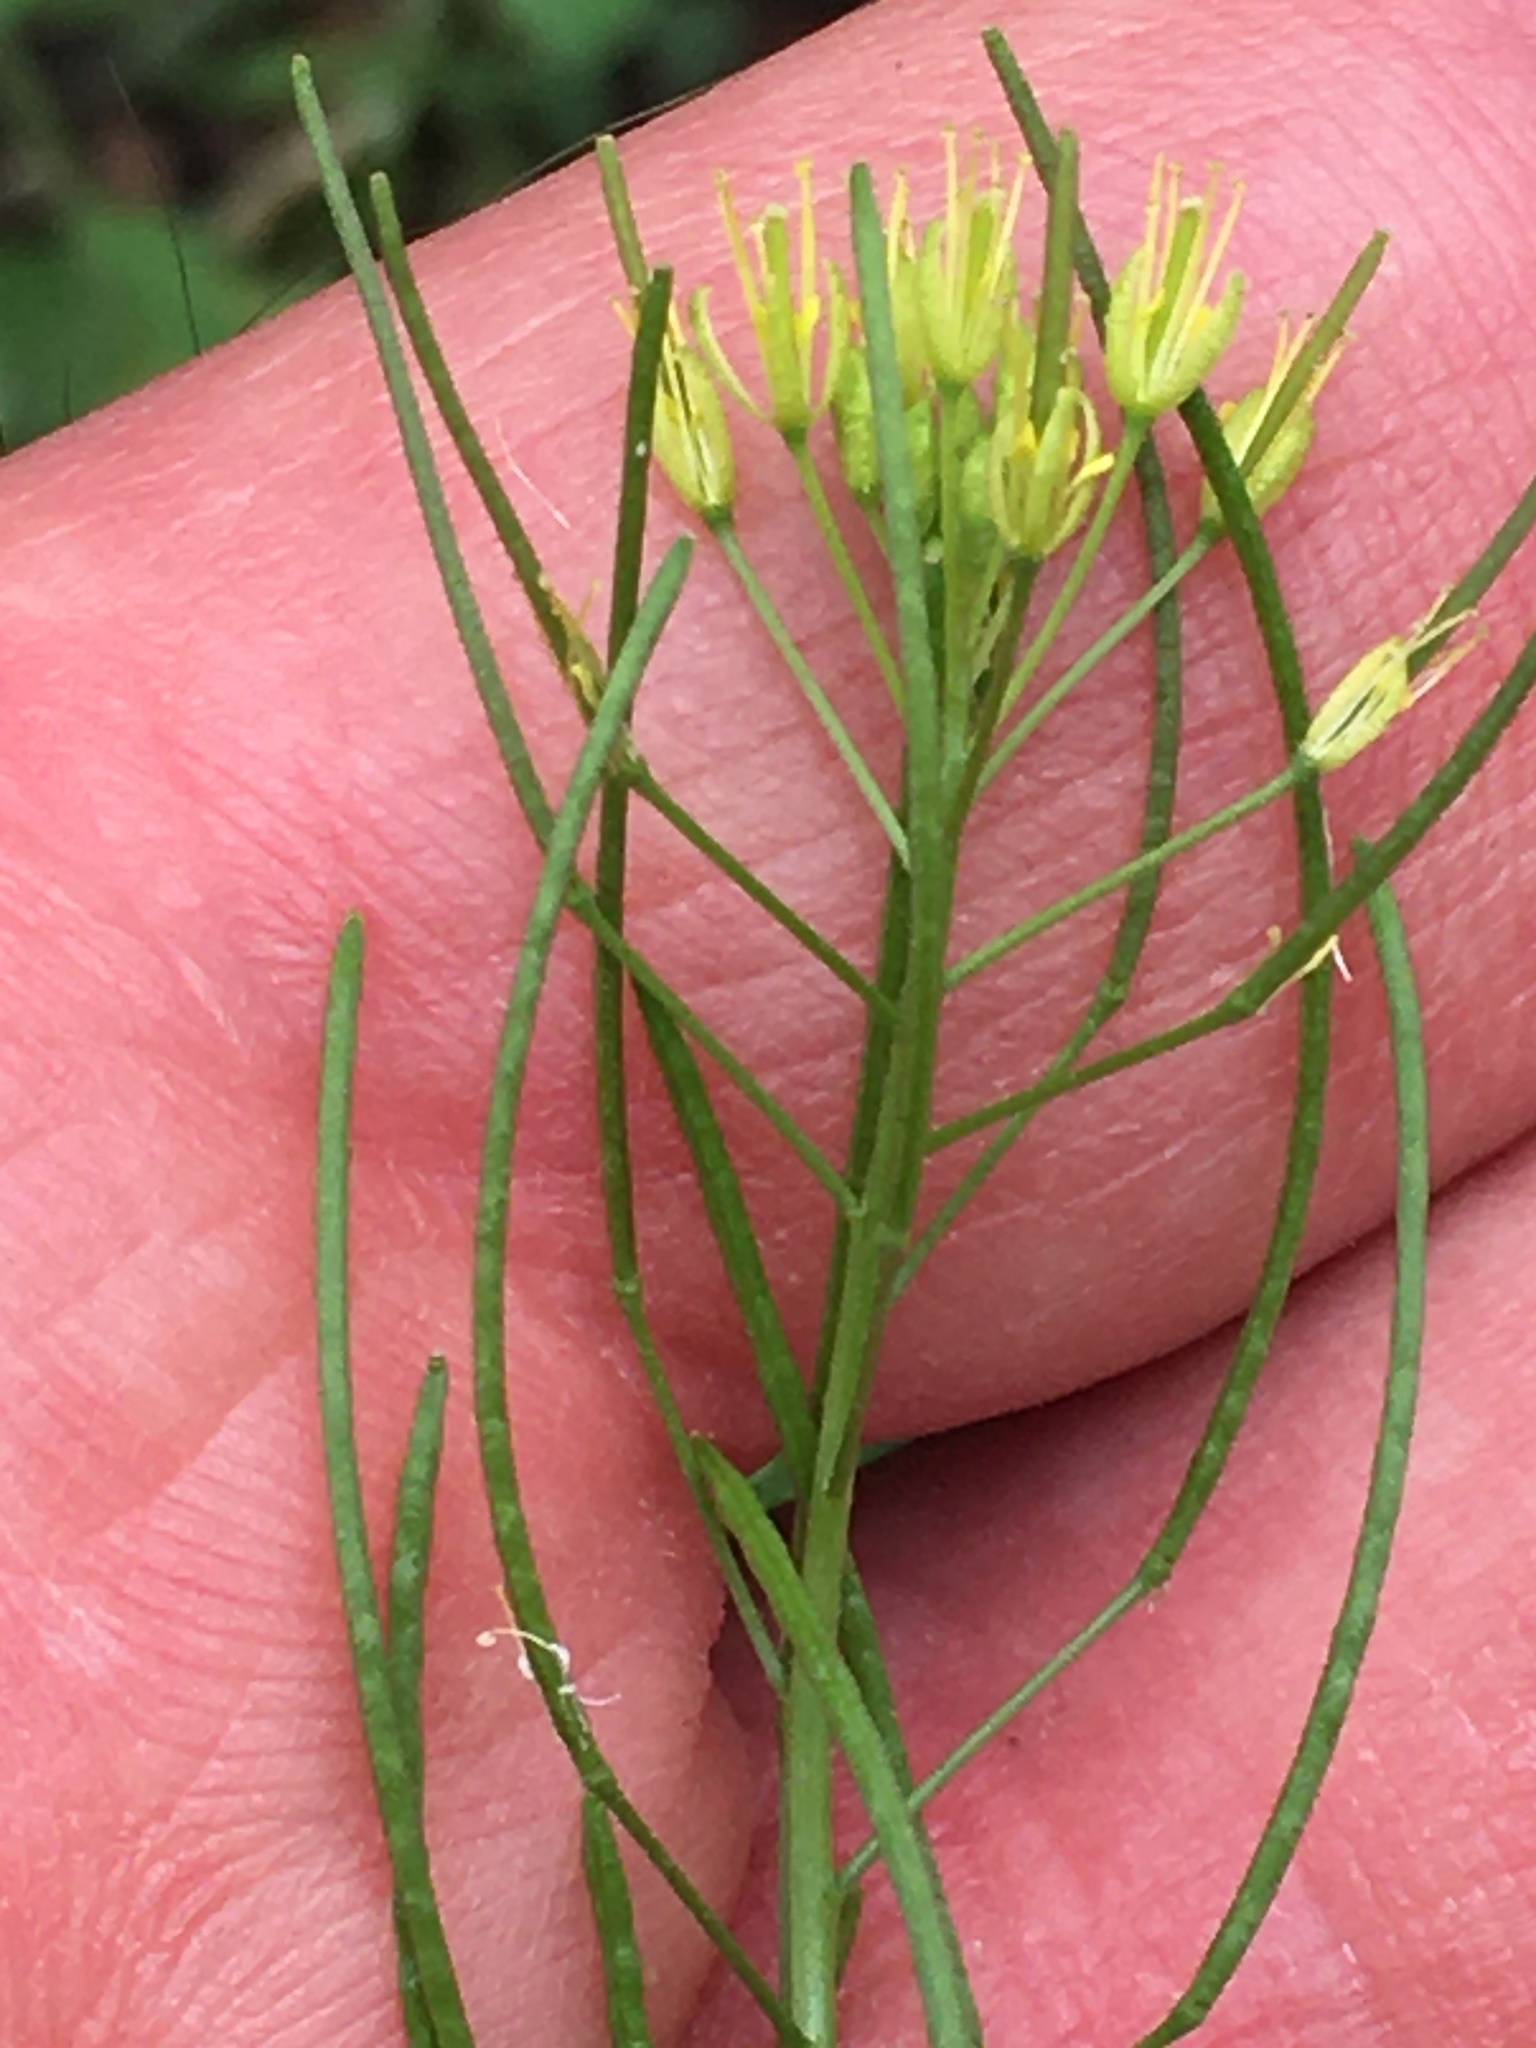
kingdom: Plantae
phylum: Tracheophyta
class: Magnoliopsida
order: Brassicales
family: Brassicaceae
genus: Descurainia
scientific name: Descurainia sophia
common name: Flixweed
